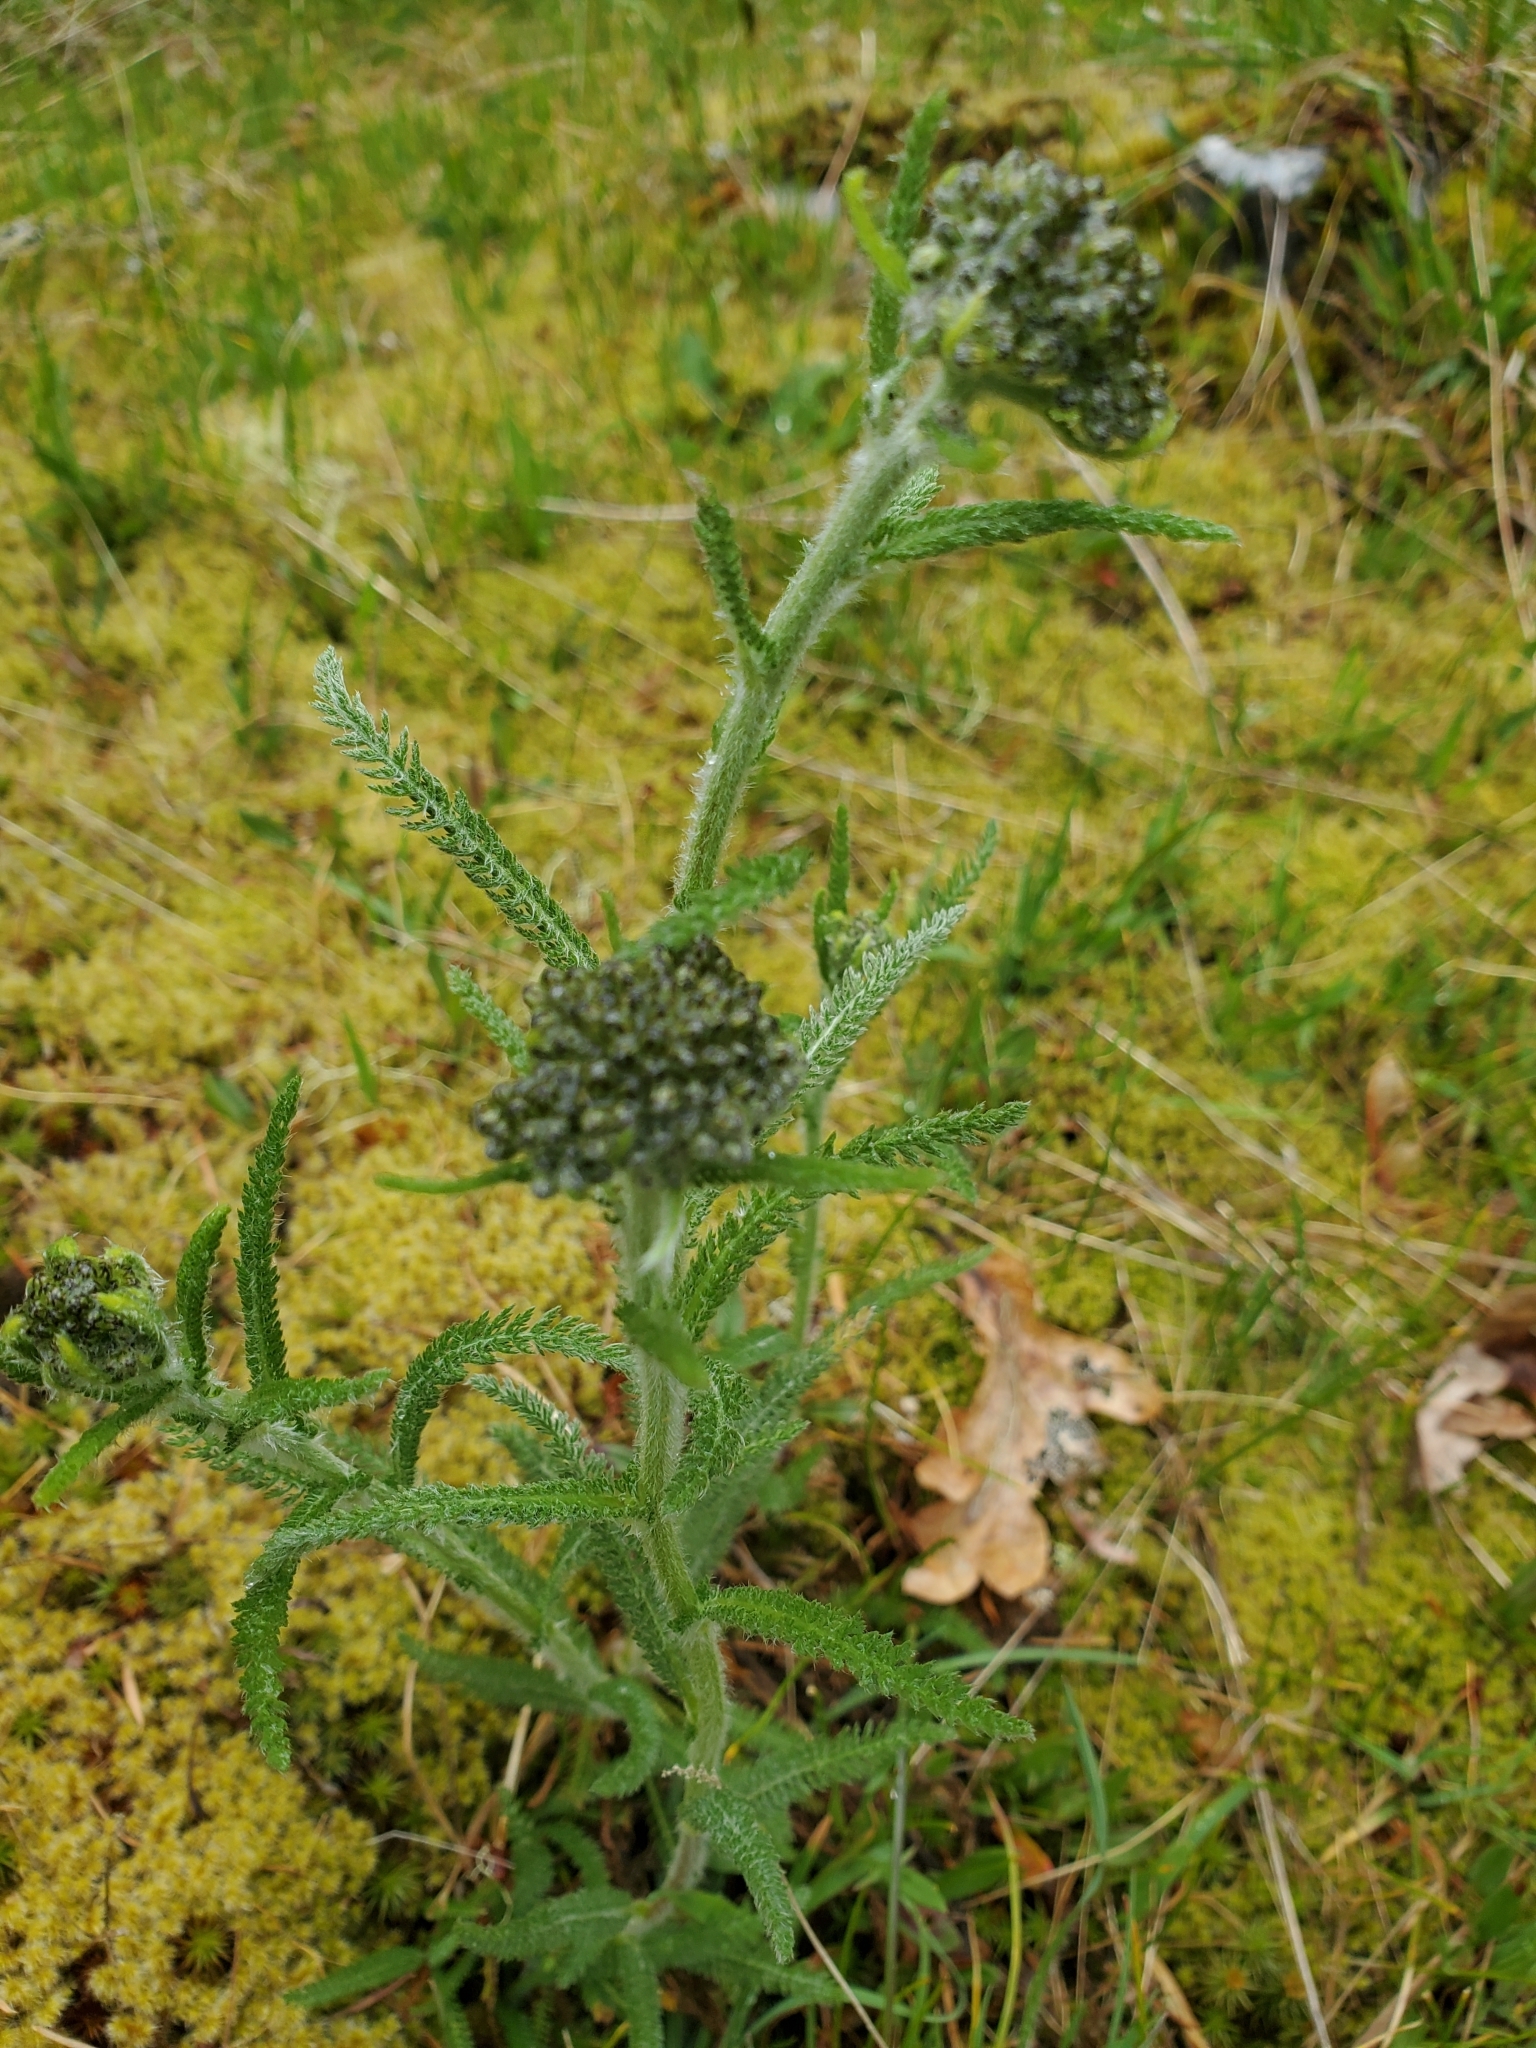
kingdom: Plantae
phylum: Tracheophyta
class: Magnoliopsida
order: Asterales
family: Asteraceae
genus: Achillea
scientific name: Achillea millefolium
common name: Yarrow
